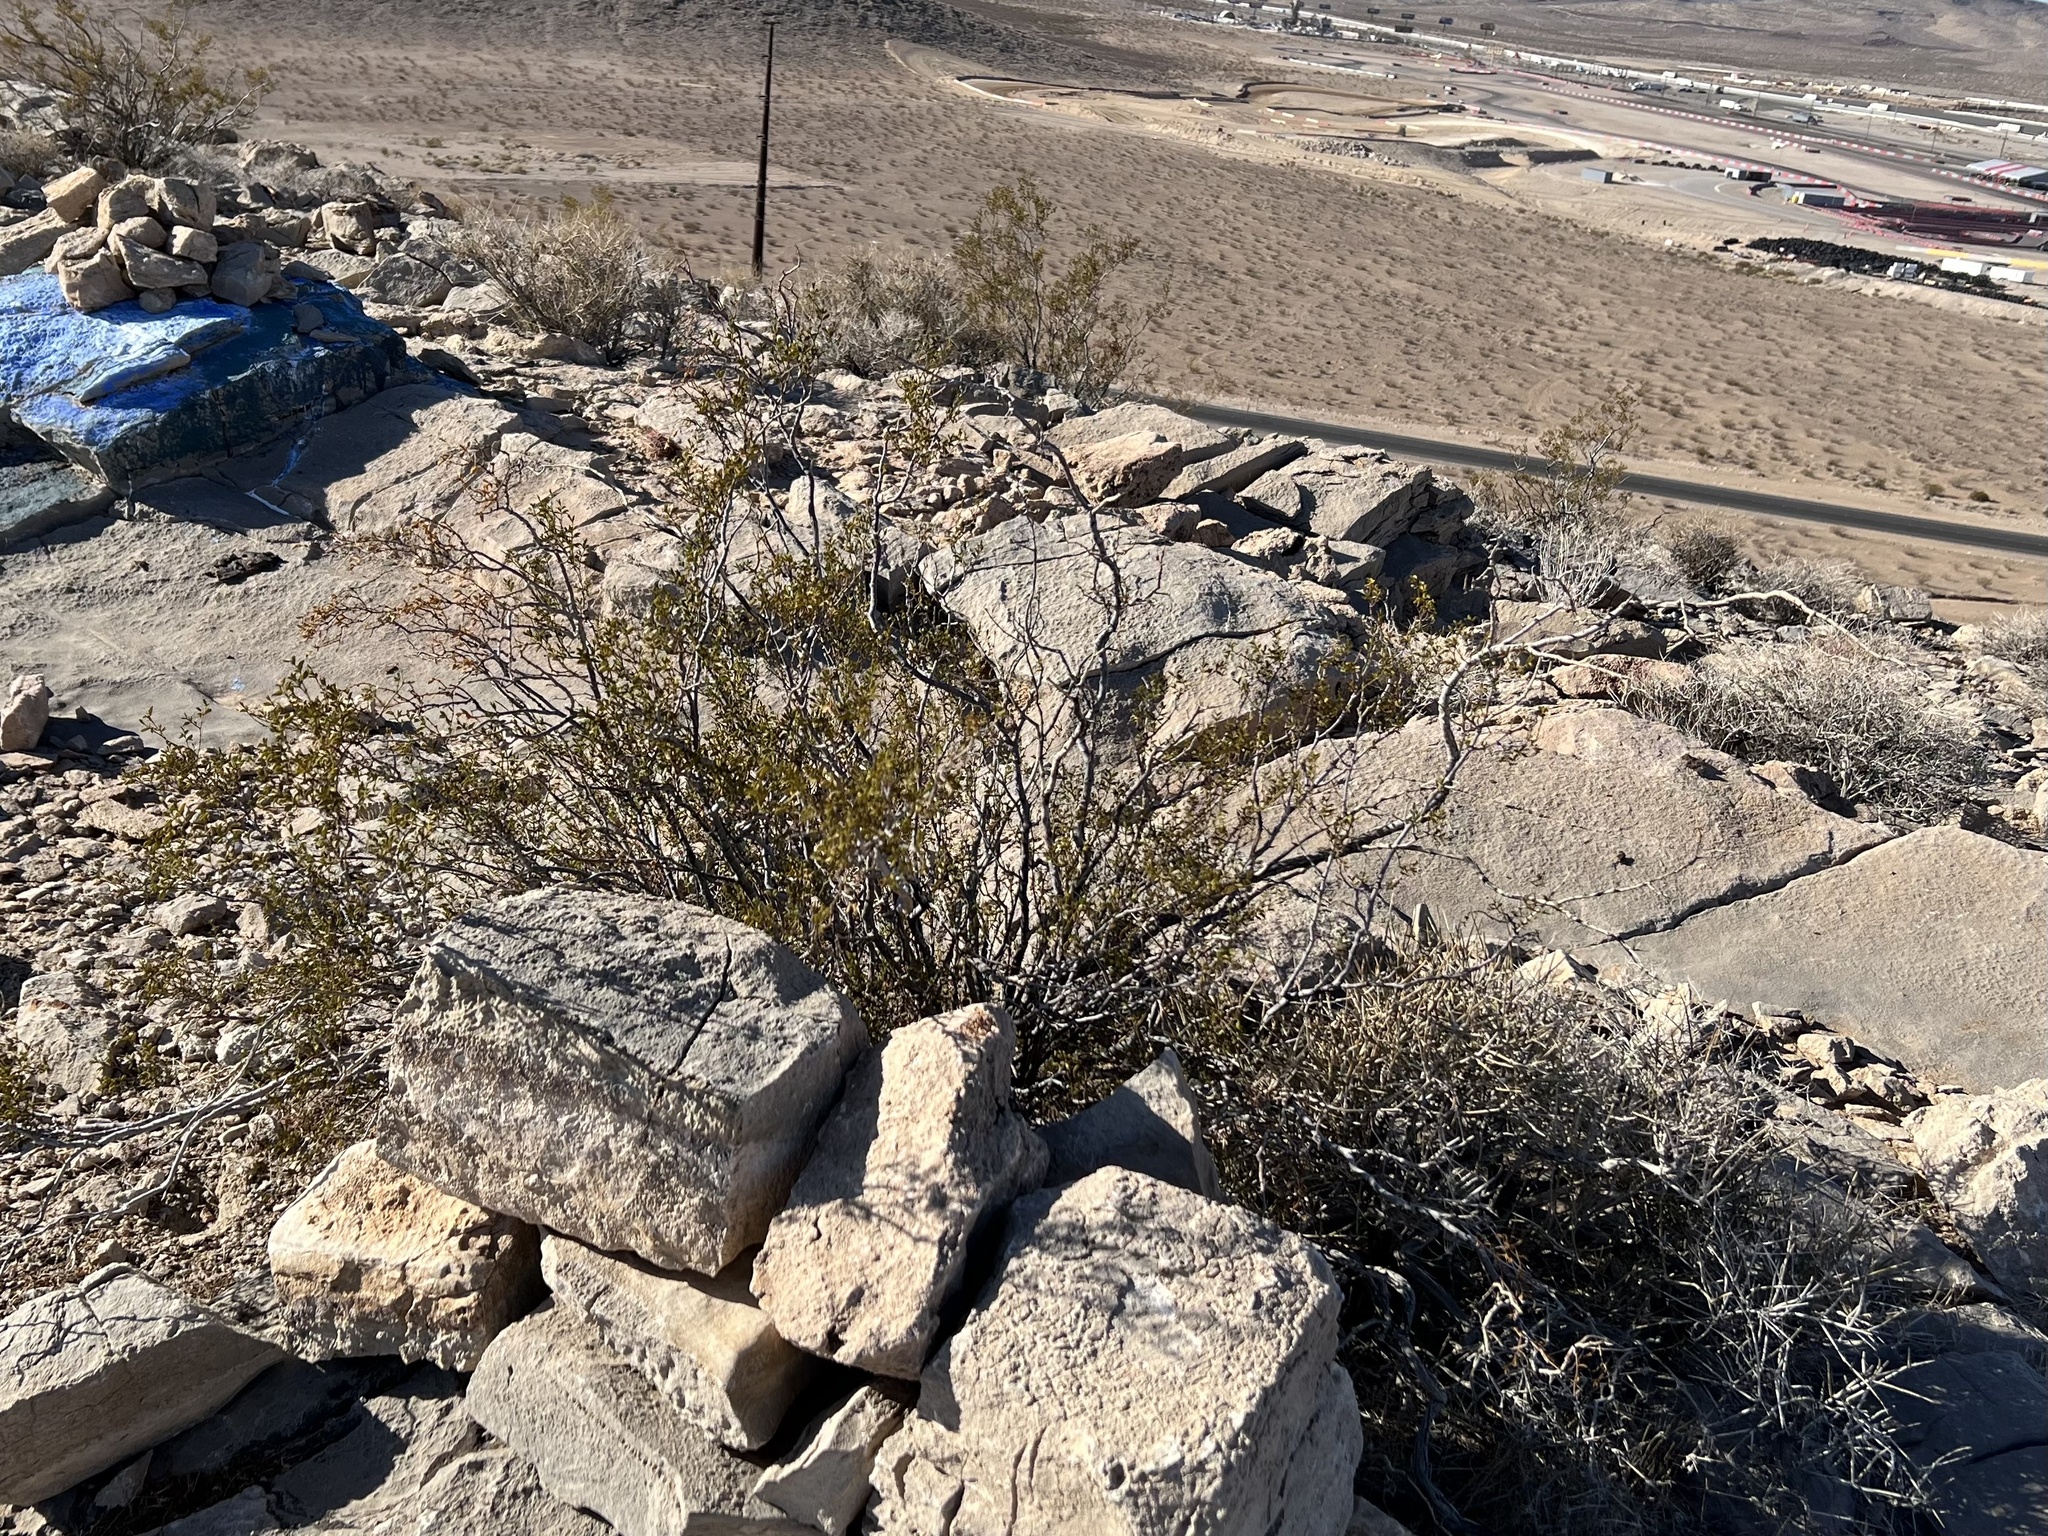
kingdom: Plantae
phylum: Tracheophyta
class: Magnoliopsida
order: Zygophyllales
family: Zygophyllaceae
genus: Larrea
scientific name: Larrea tridentata
